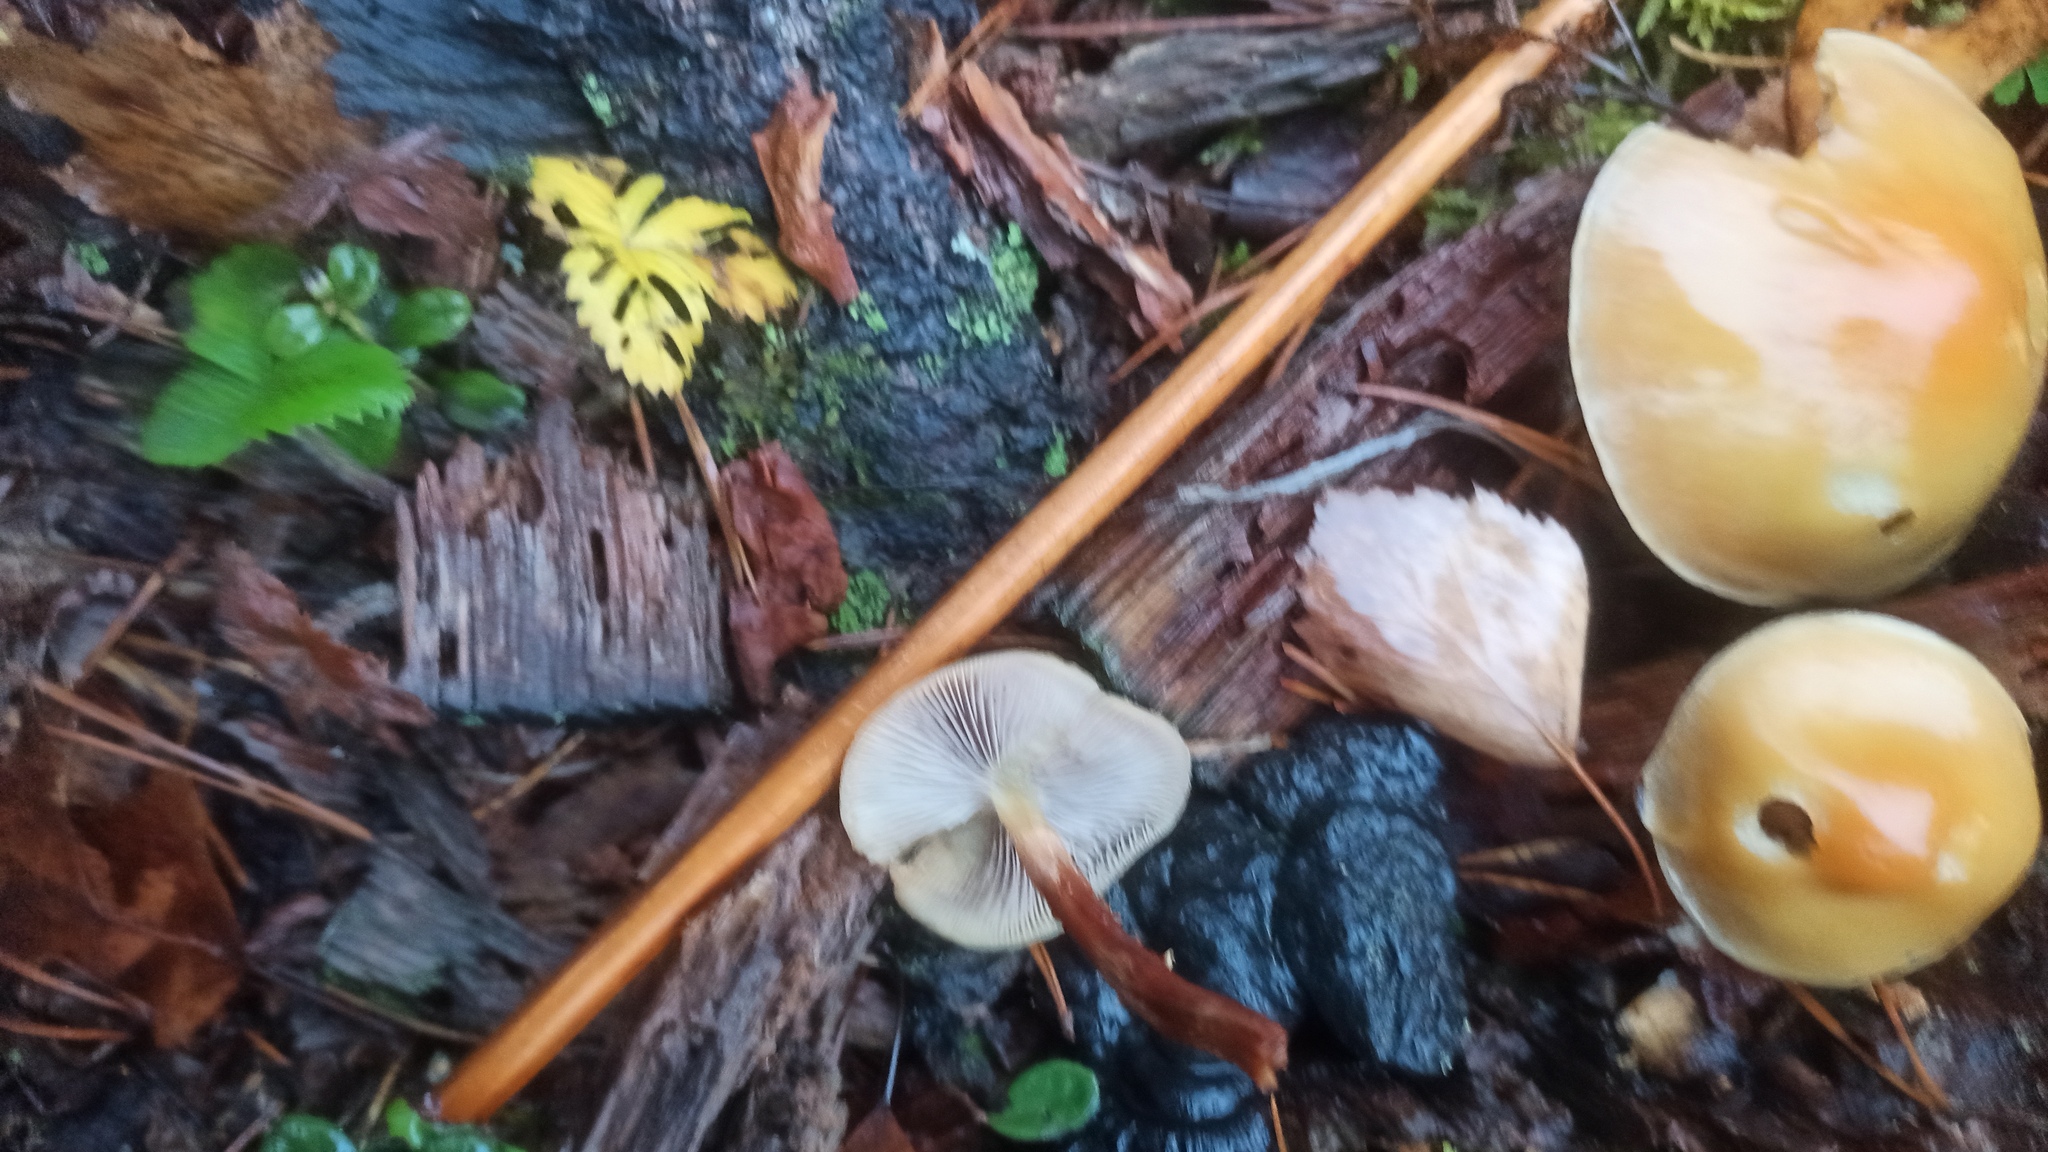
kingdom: Fungi
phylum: Basidiomycota
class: Agaricomycetes
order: Agaricales
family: Strophariaceae
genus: Hypholoma
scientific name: Hypholoma capnoides
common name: Conifer tuft
